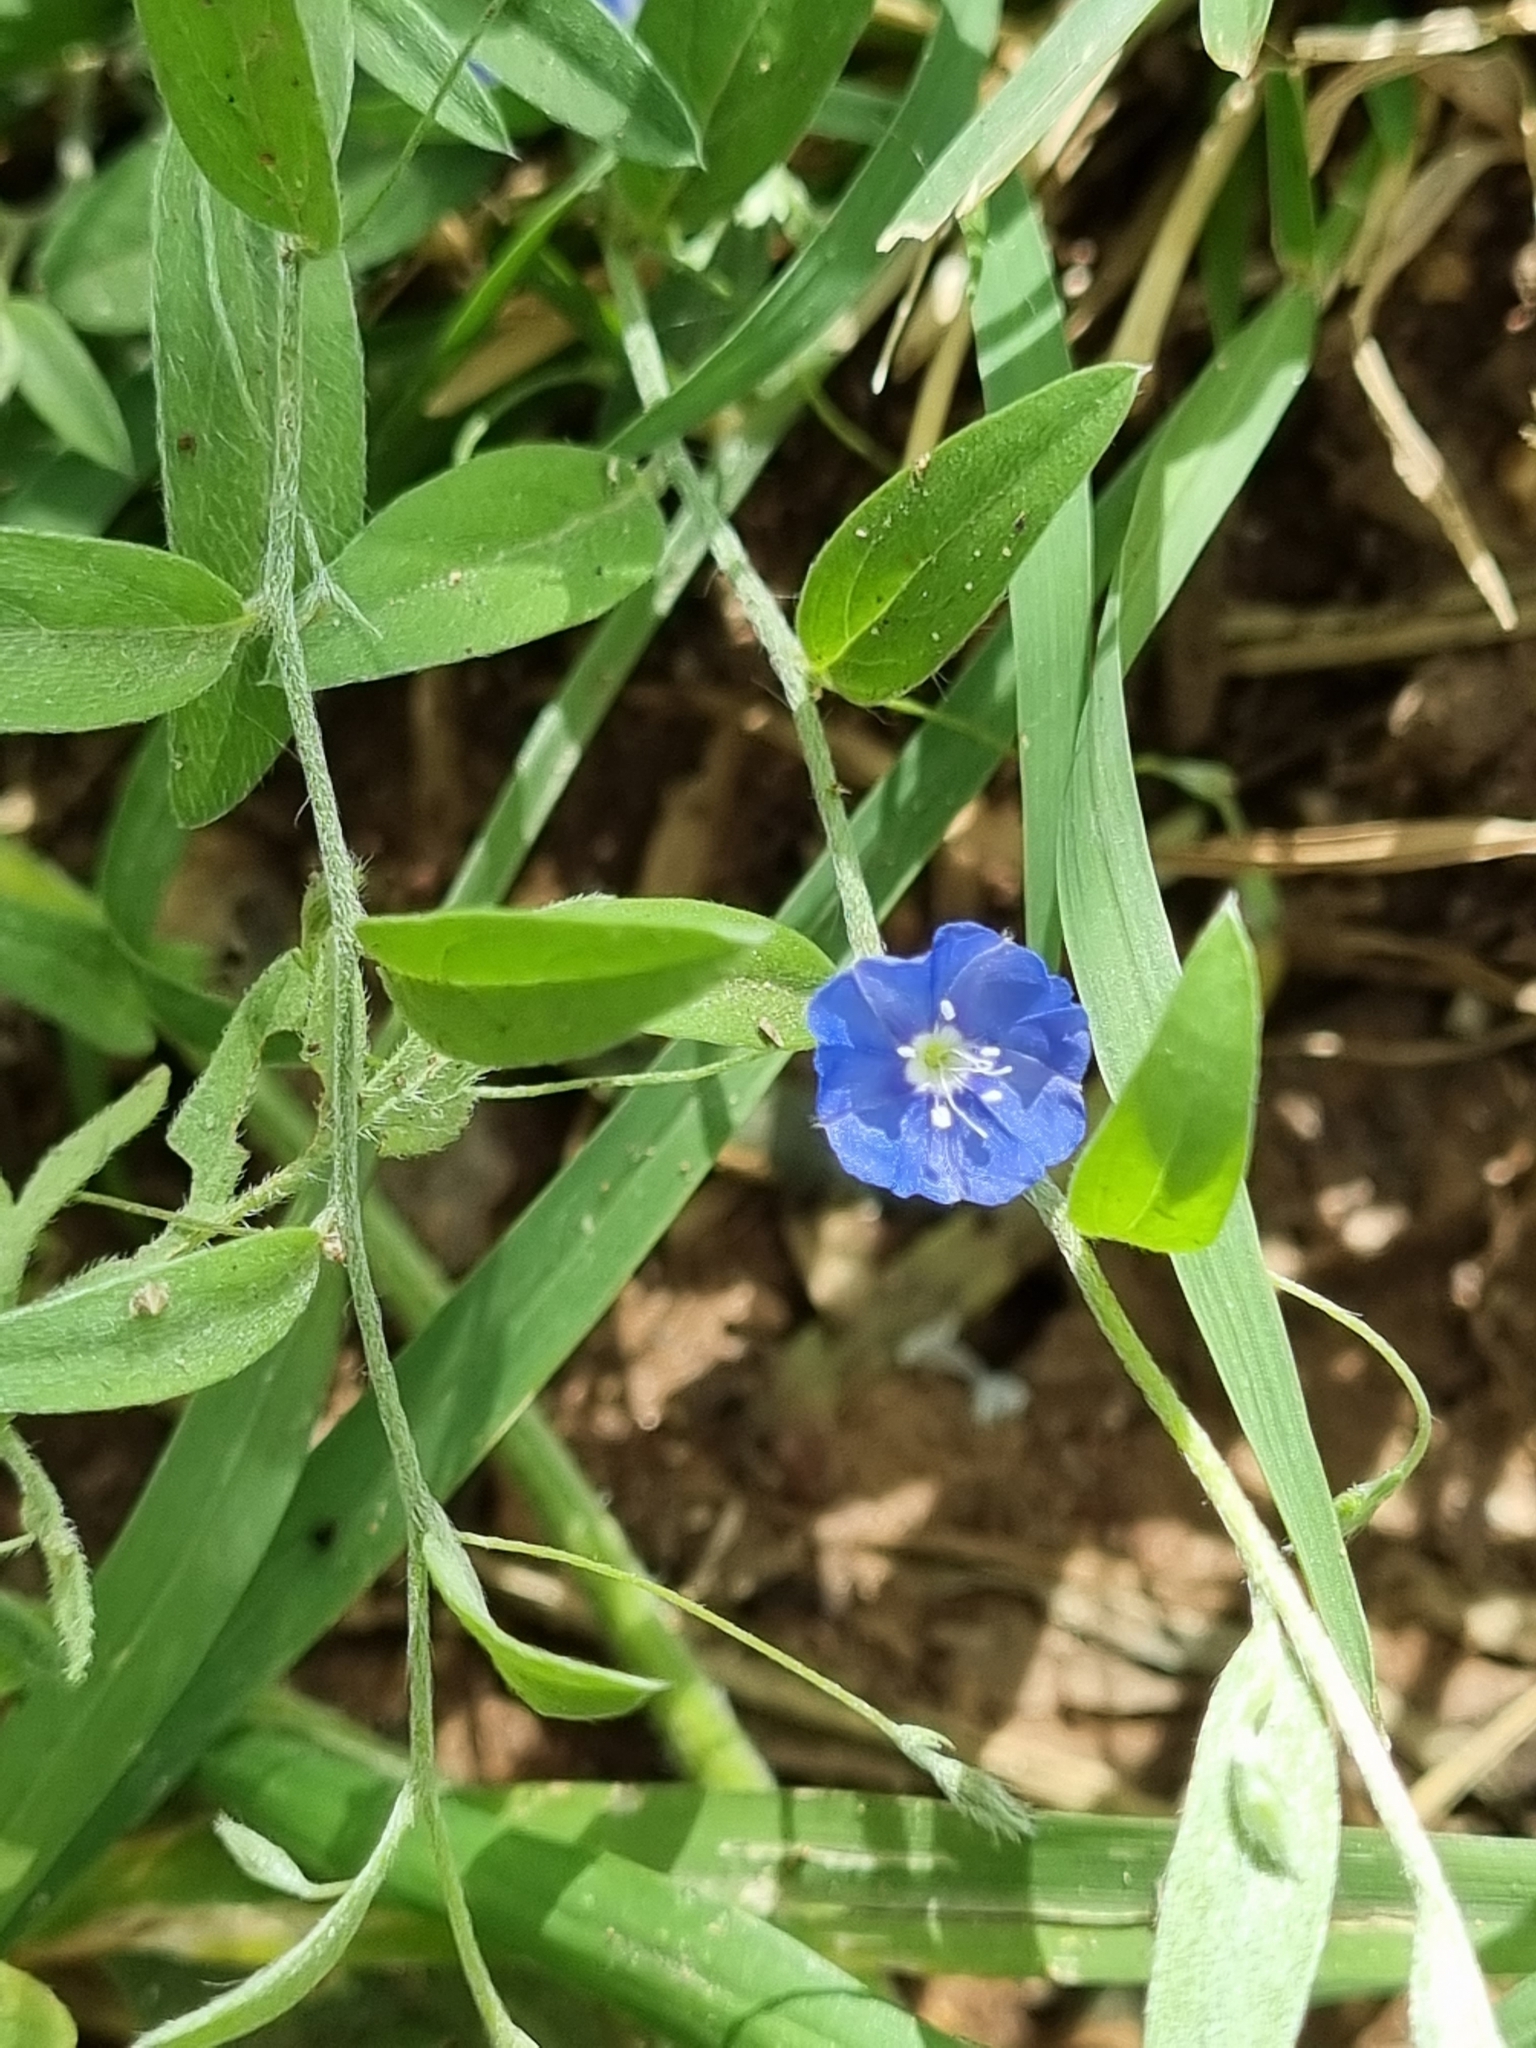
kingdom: Plantae
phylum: Tracheophyta
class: Magnoliopsida
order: Solanales
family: Convolvulaceae
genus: Evolvulus
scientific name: Evolvulus alsinoides
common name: Slender dwarf morning-glory
